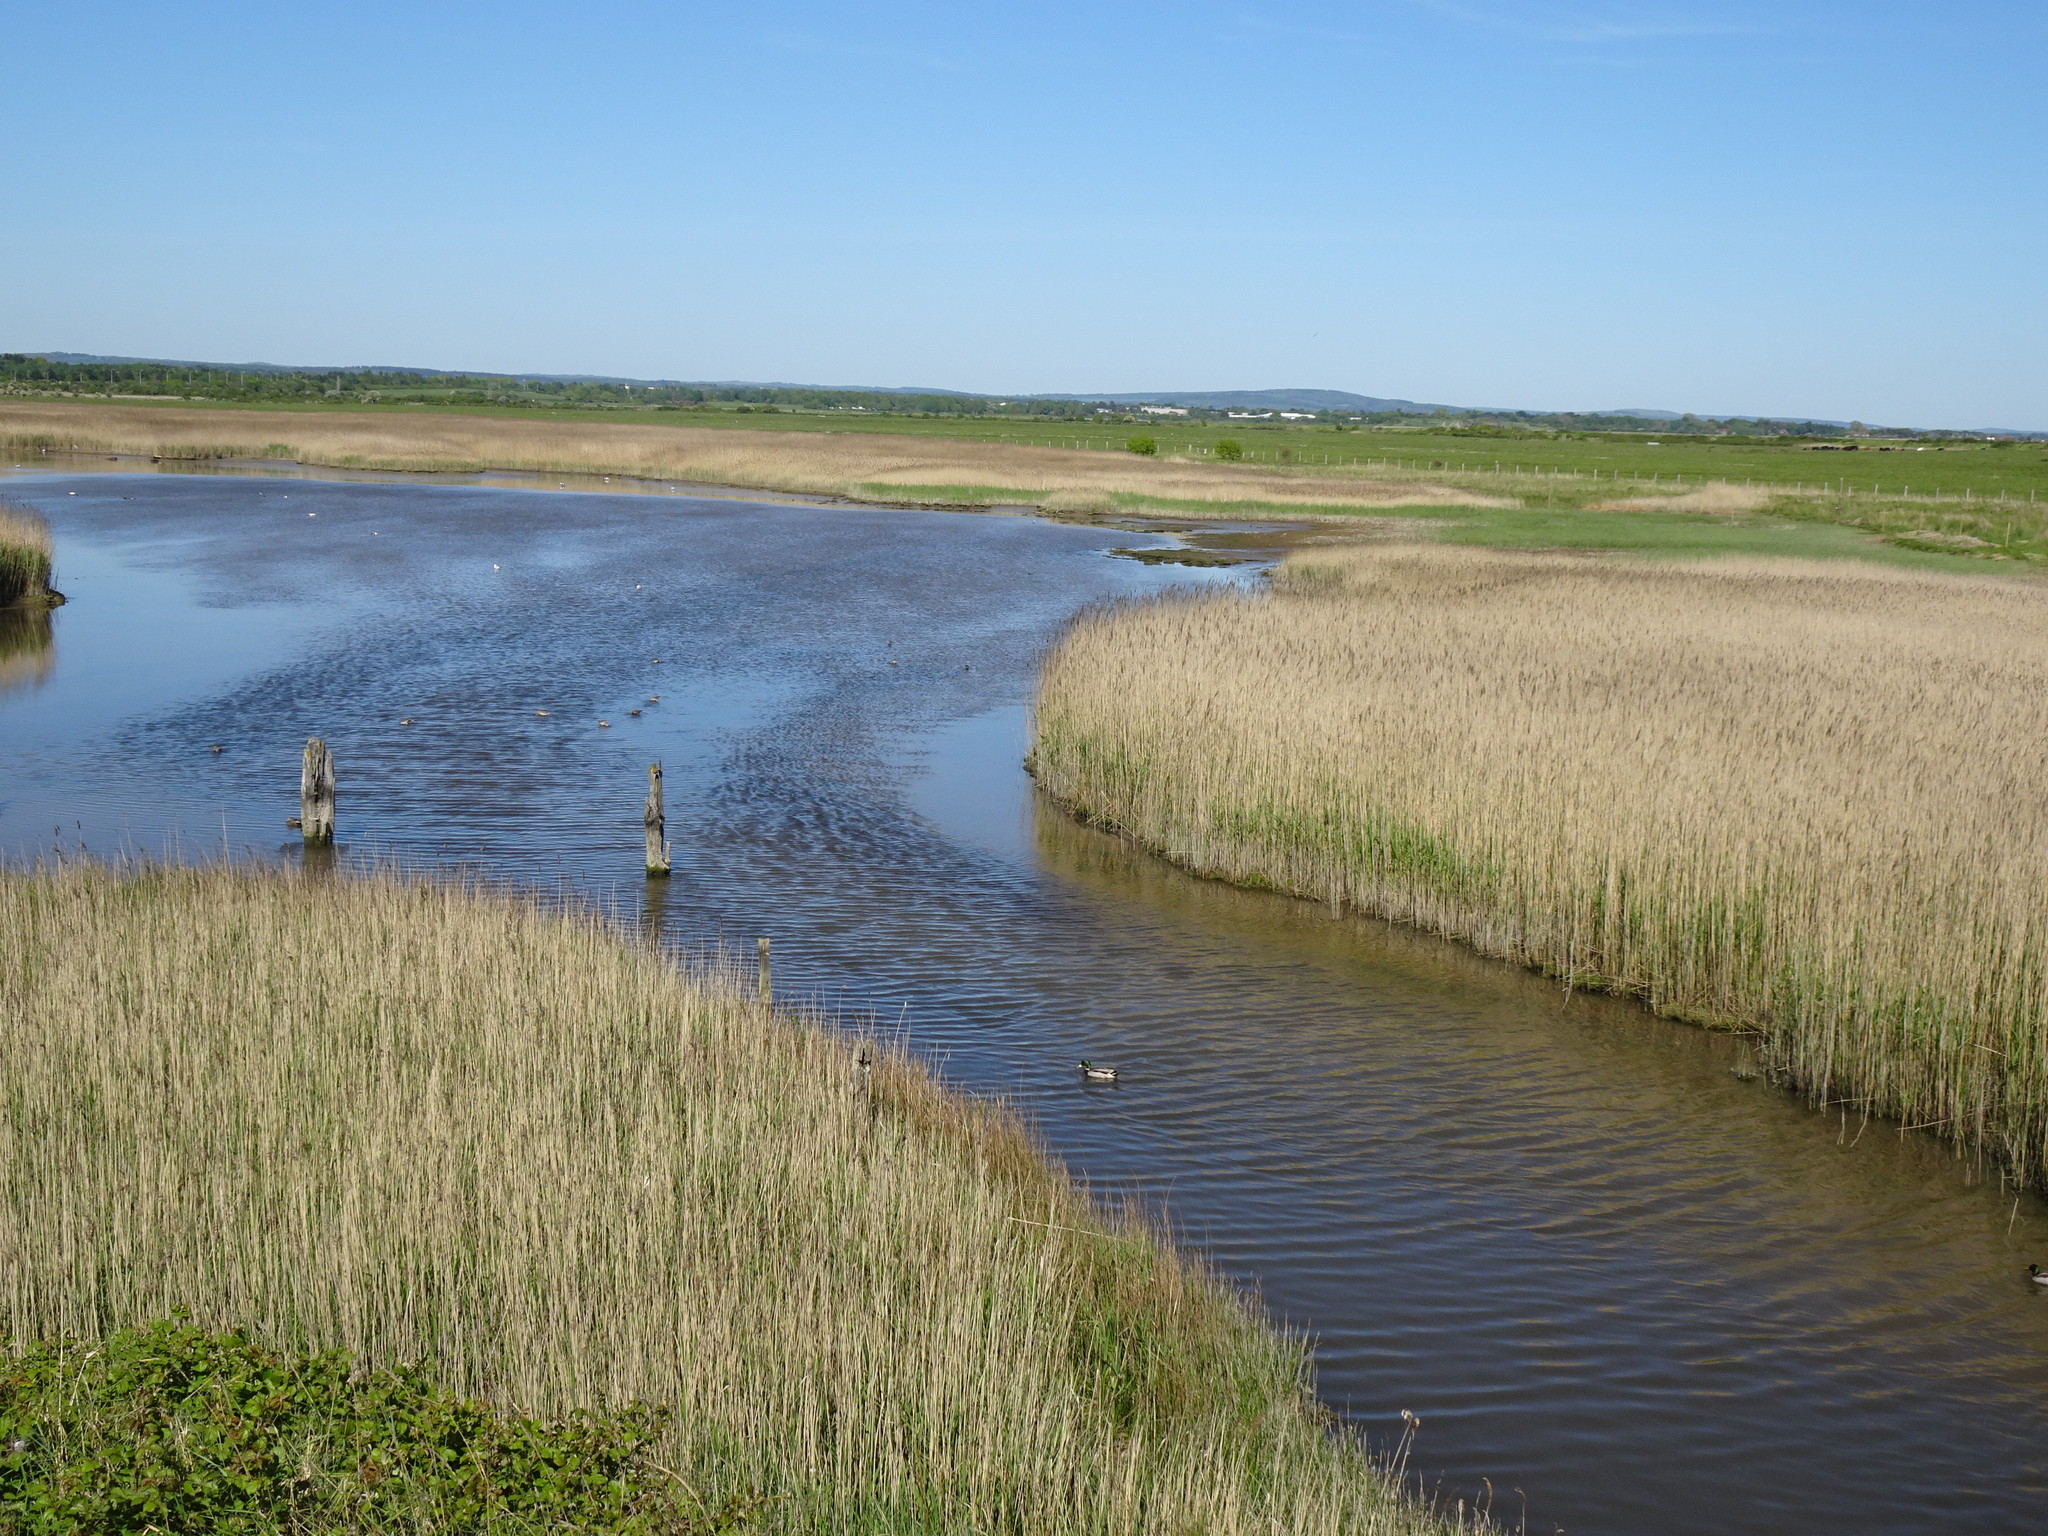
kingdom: Plantae
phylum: Tracheophyta
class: Liliopsida
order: Poales
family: Poaceae
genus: Phragmites
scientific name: Phragmites australis
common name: Common reed
